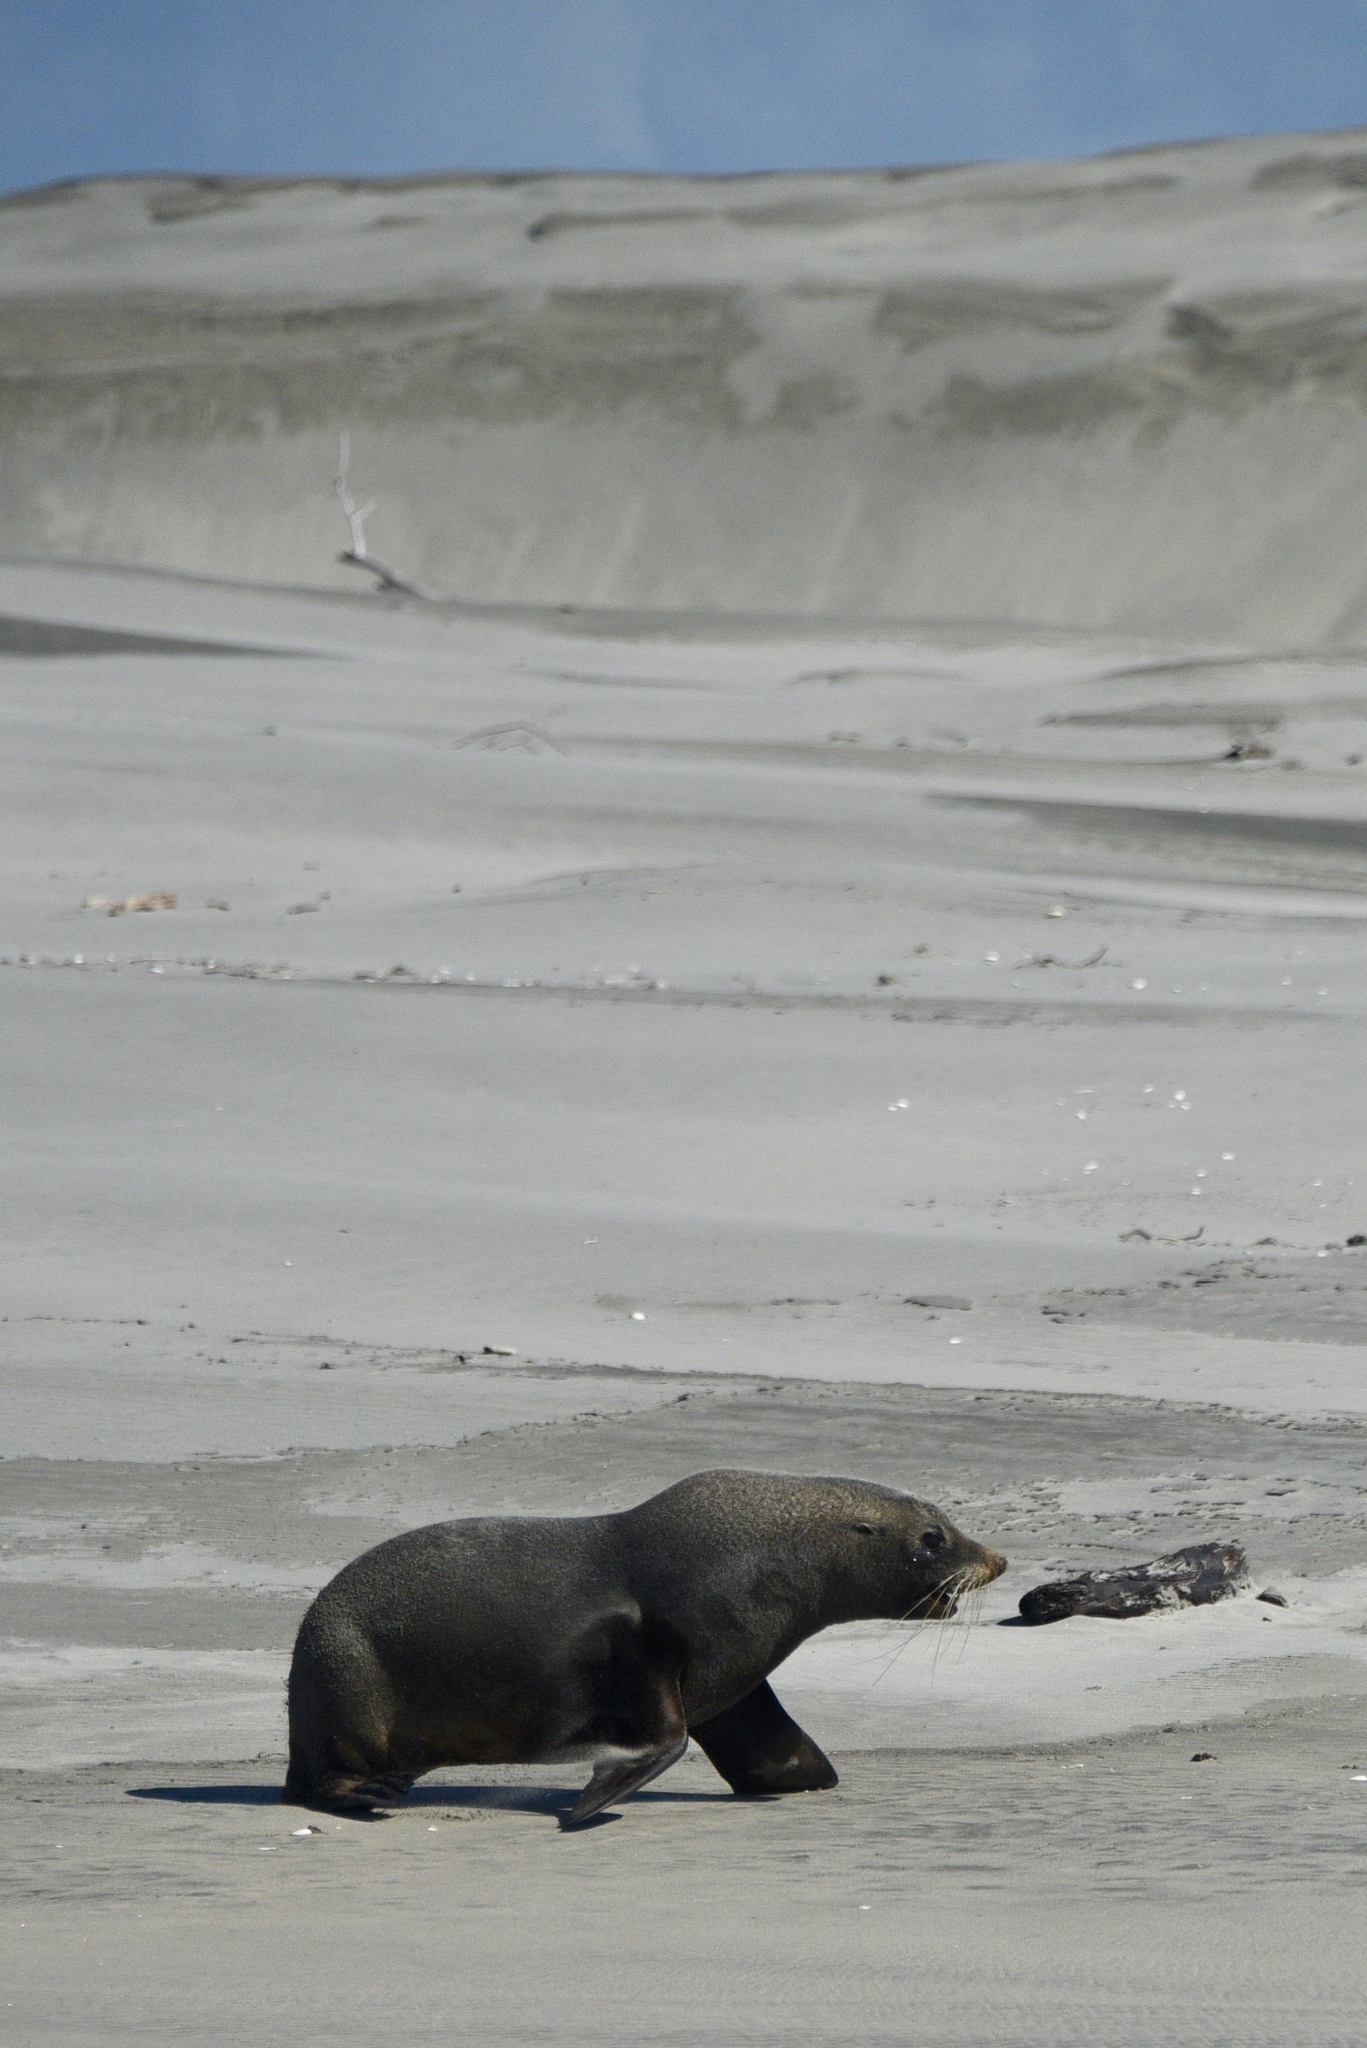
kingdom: Animalia
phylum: Chordata
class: Mammalia
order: Carnivora
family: Otariidae
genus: Arctocephalus
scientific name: Arctocephalus forsteri
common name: New zealand fur seal
